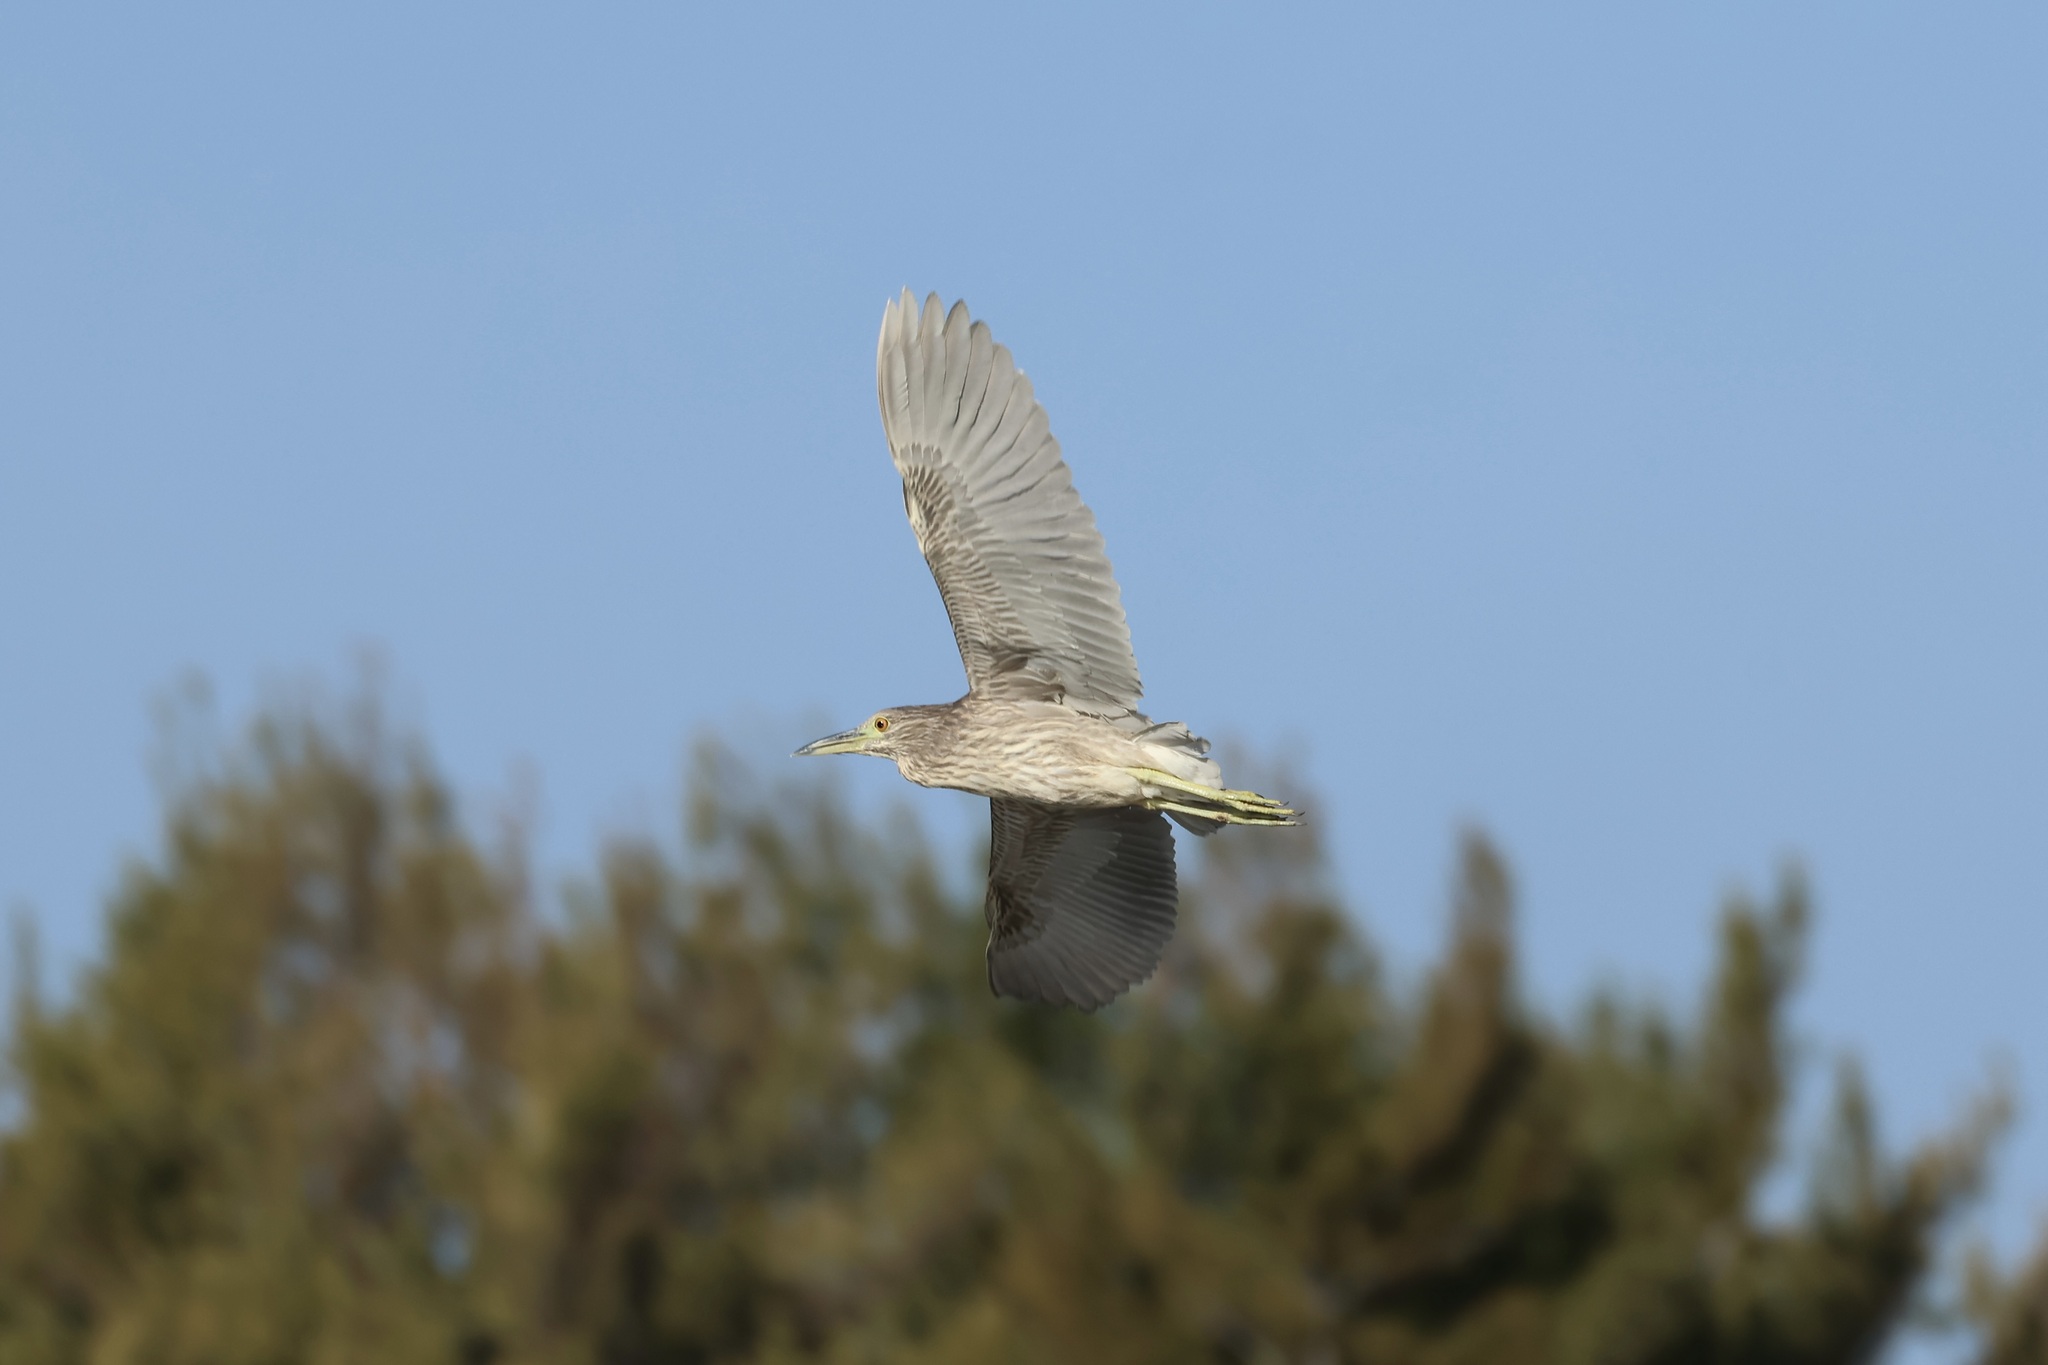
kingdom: Animalia
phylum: Chordata
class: Aves
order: Pelecaniformes
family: Ardeidae
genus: Nycticorax
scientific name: Nycticorax nycticorax
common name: Black-crowned night heron
